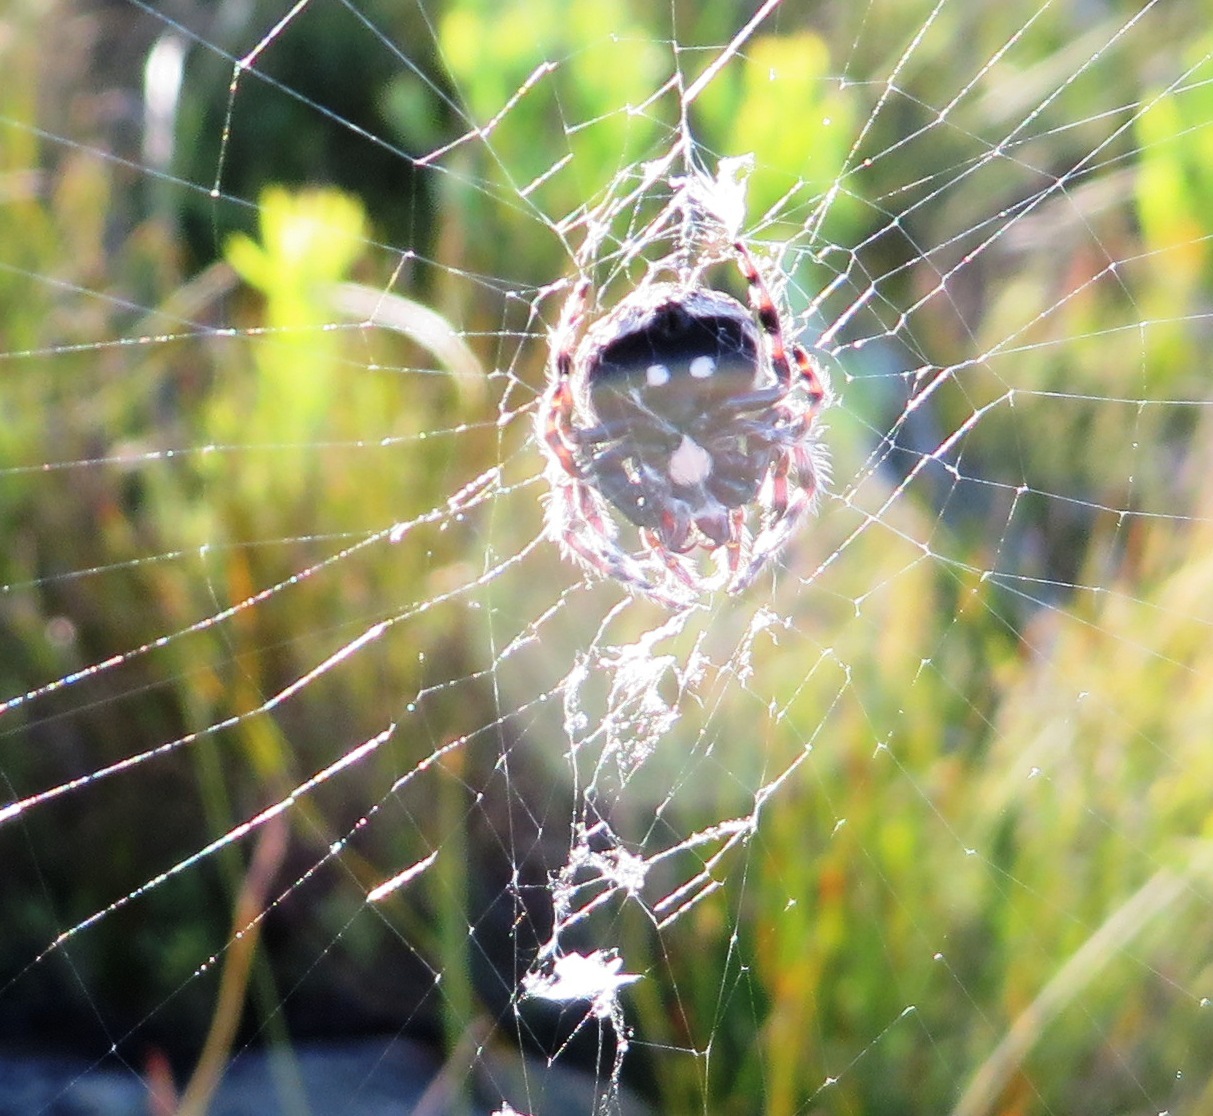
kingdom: Animalia
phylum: Arthropoda
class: Arachnida
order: Araneae
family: Araneidae
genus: Caerostris
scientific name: Caerostris sexcuspidata
